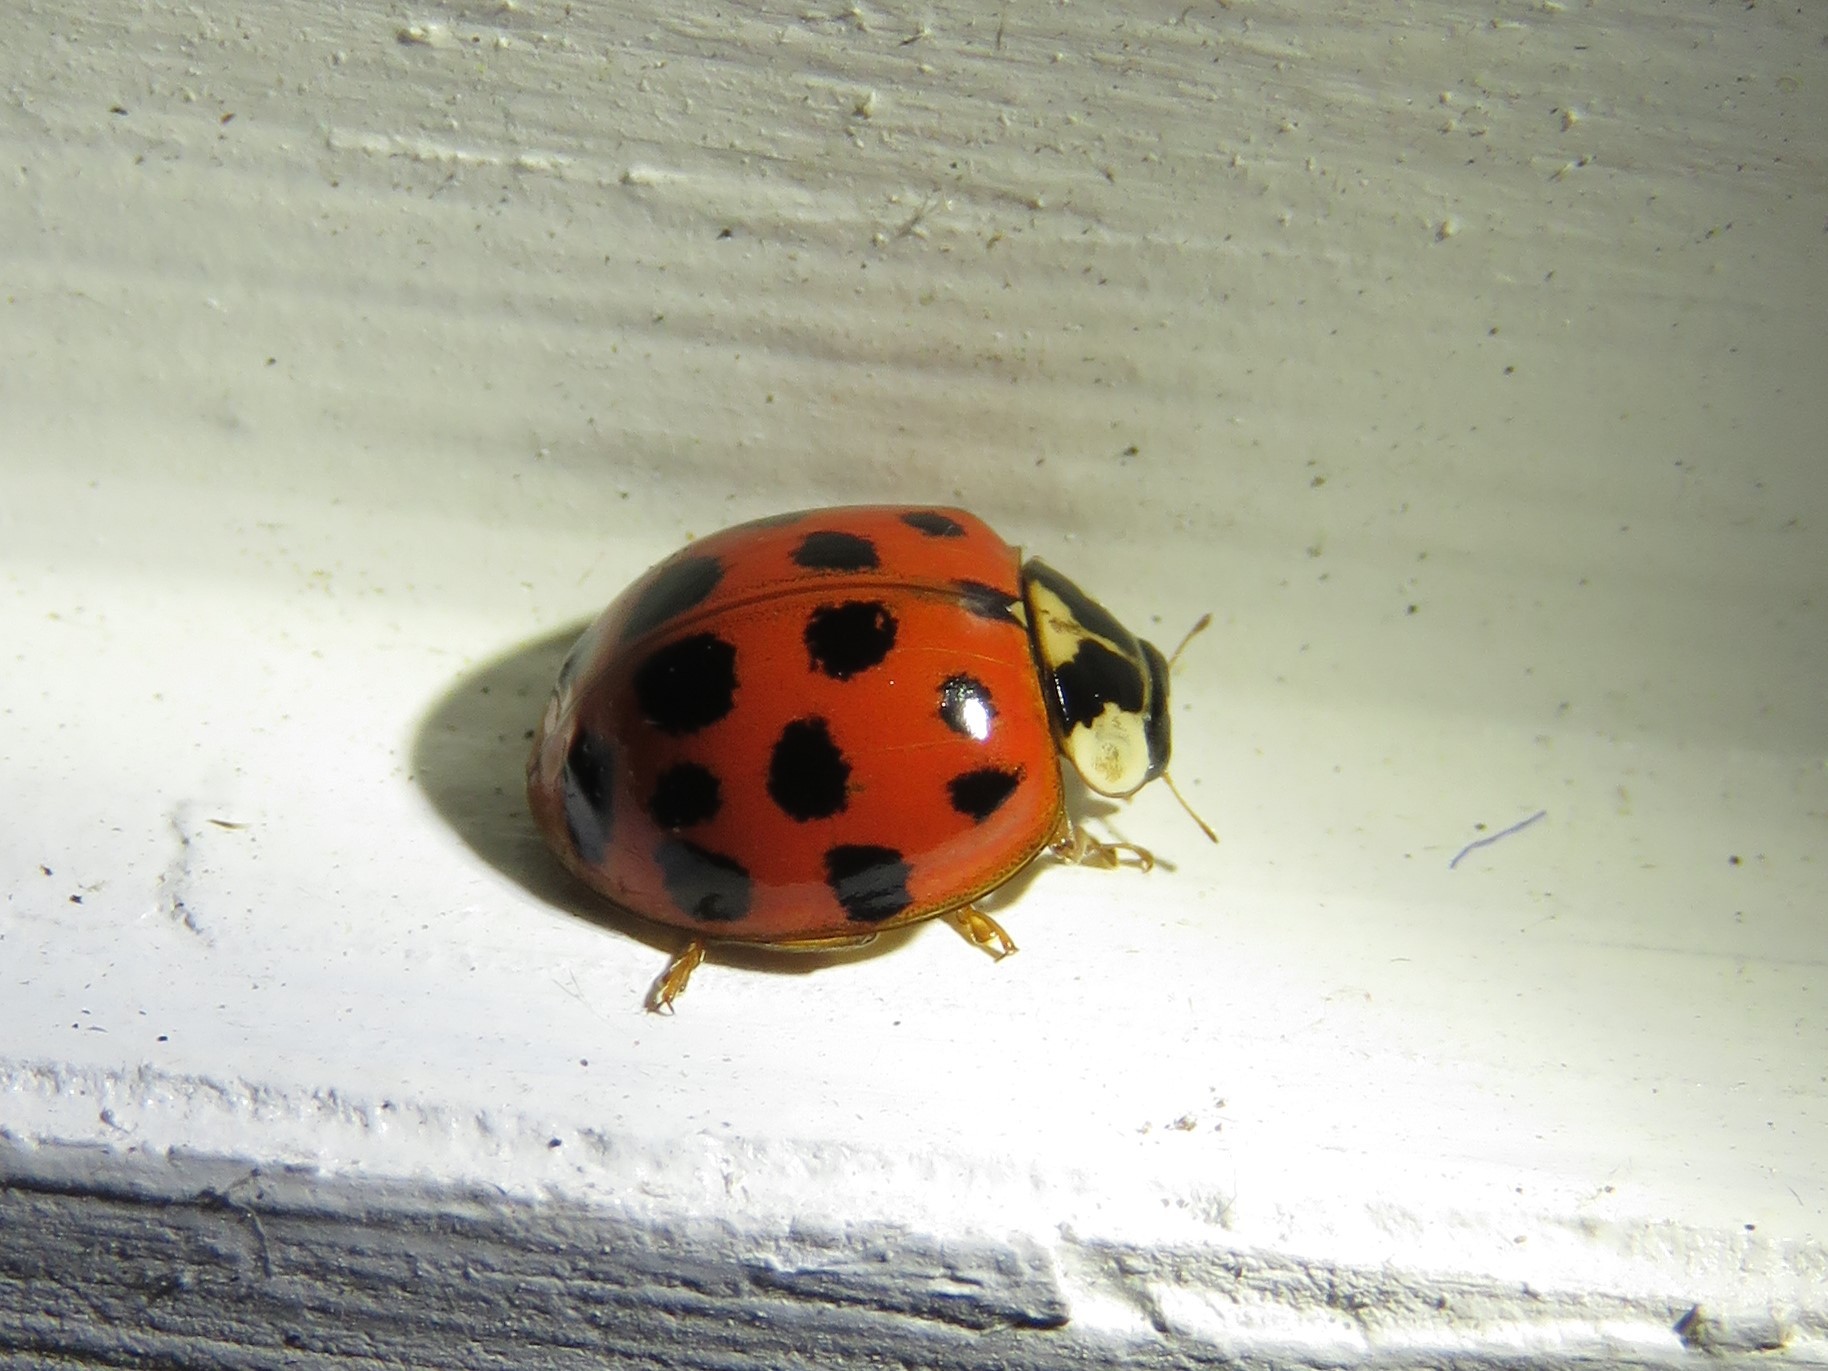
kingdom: Animalia
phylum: Arthropoda
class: Insecta
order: Coleoptera
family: Coccinellidae
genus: Harmonia
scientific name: Harmonia axyridis
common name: Harlequin ladybird
